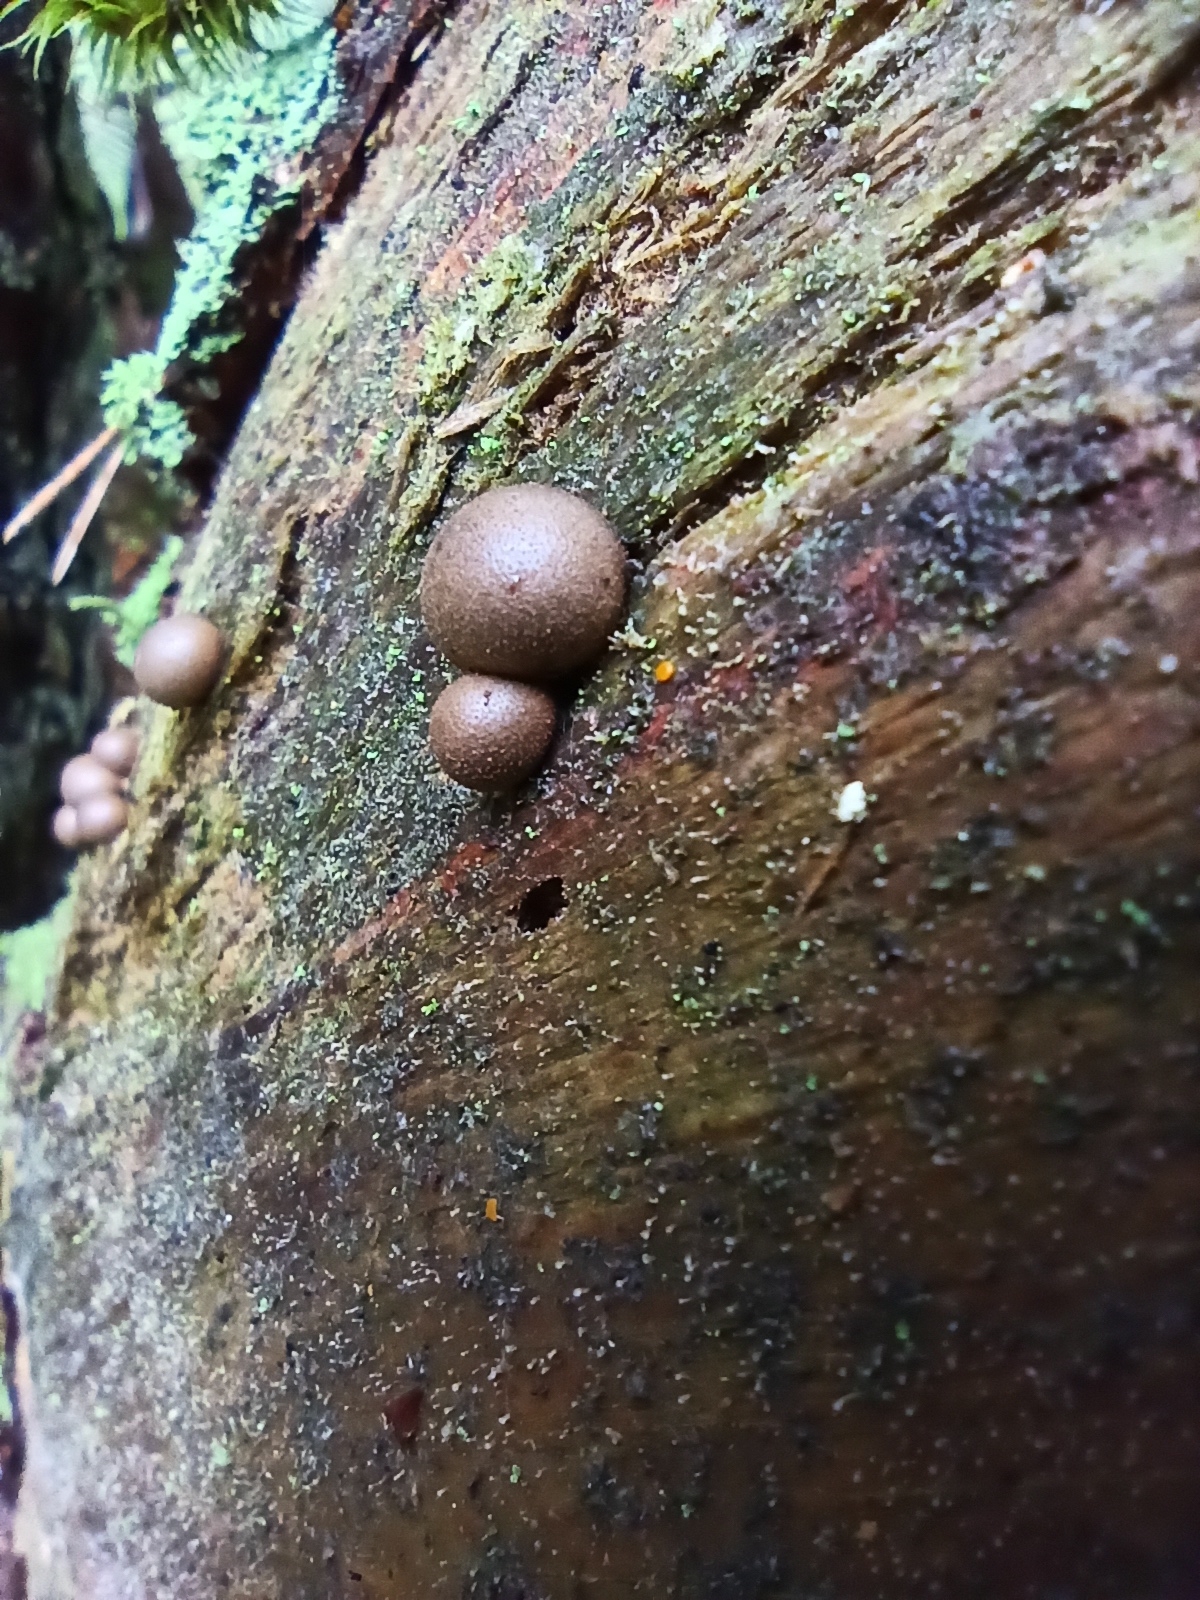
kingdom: Protozoa
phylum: Mycetozoa
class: Myxomycetes
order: Cribrariales
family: Tubiferaceae
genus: Lycogala
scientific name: Lycogala epidendrum
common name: Wolf's milk
